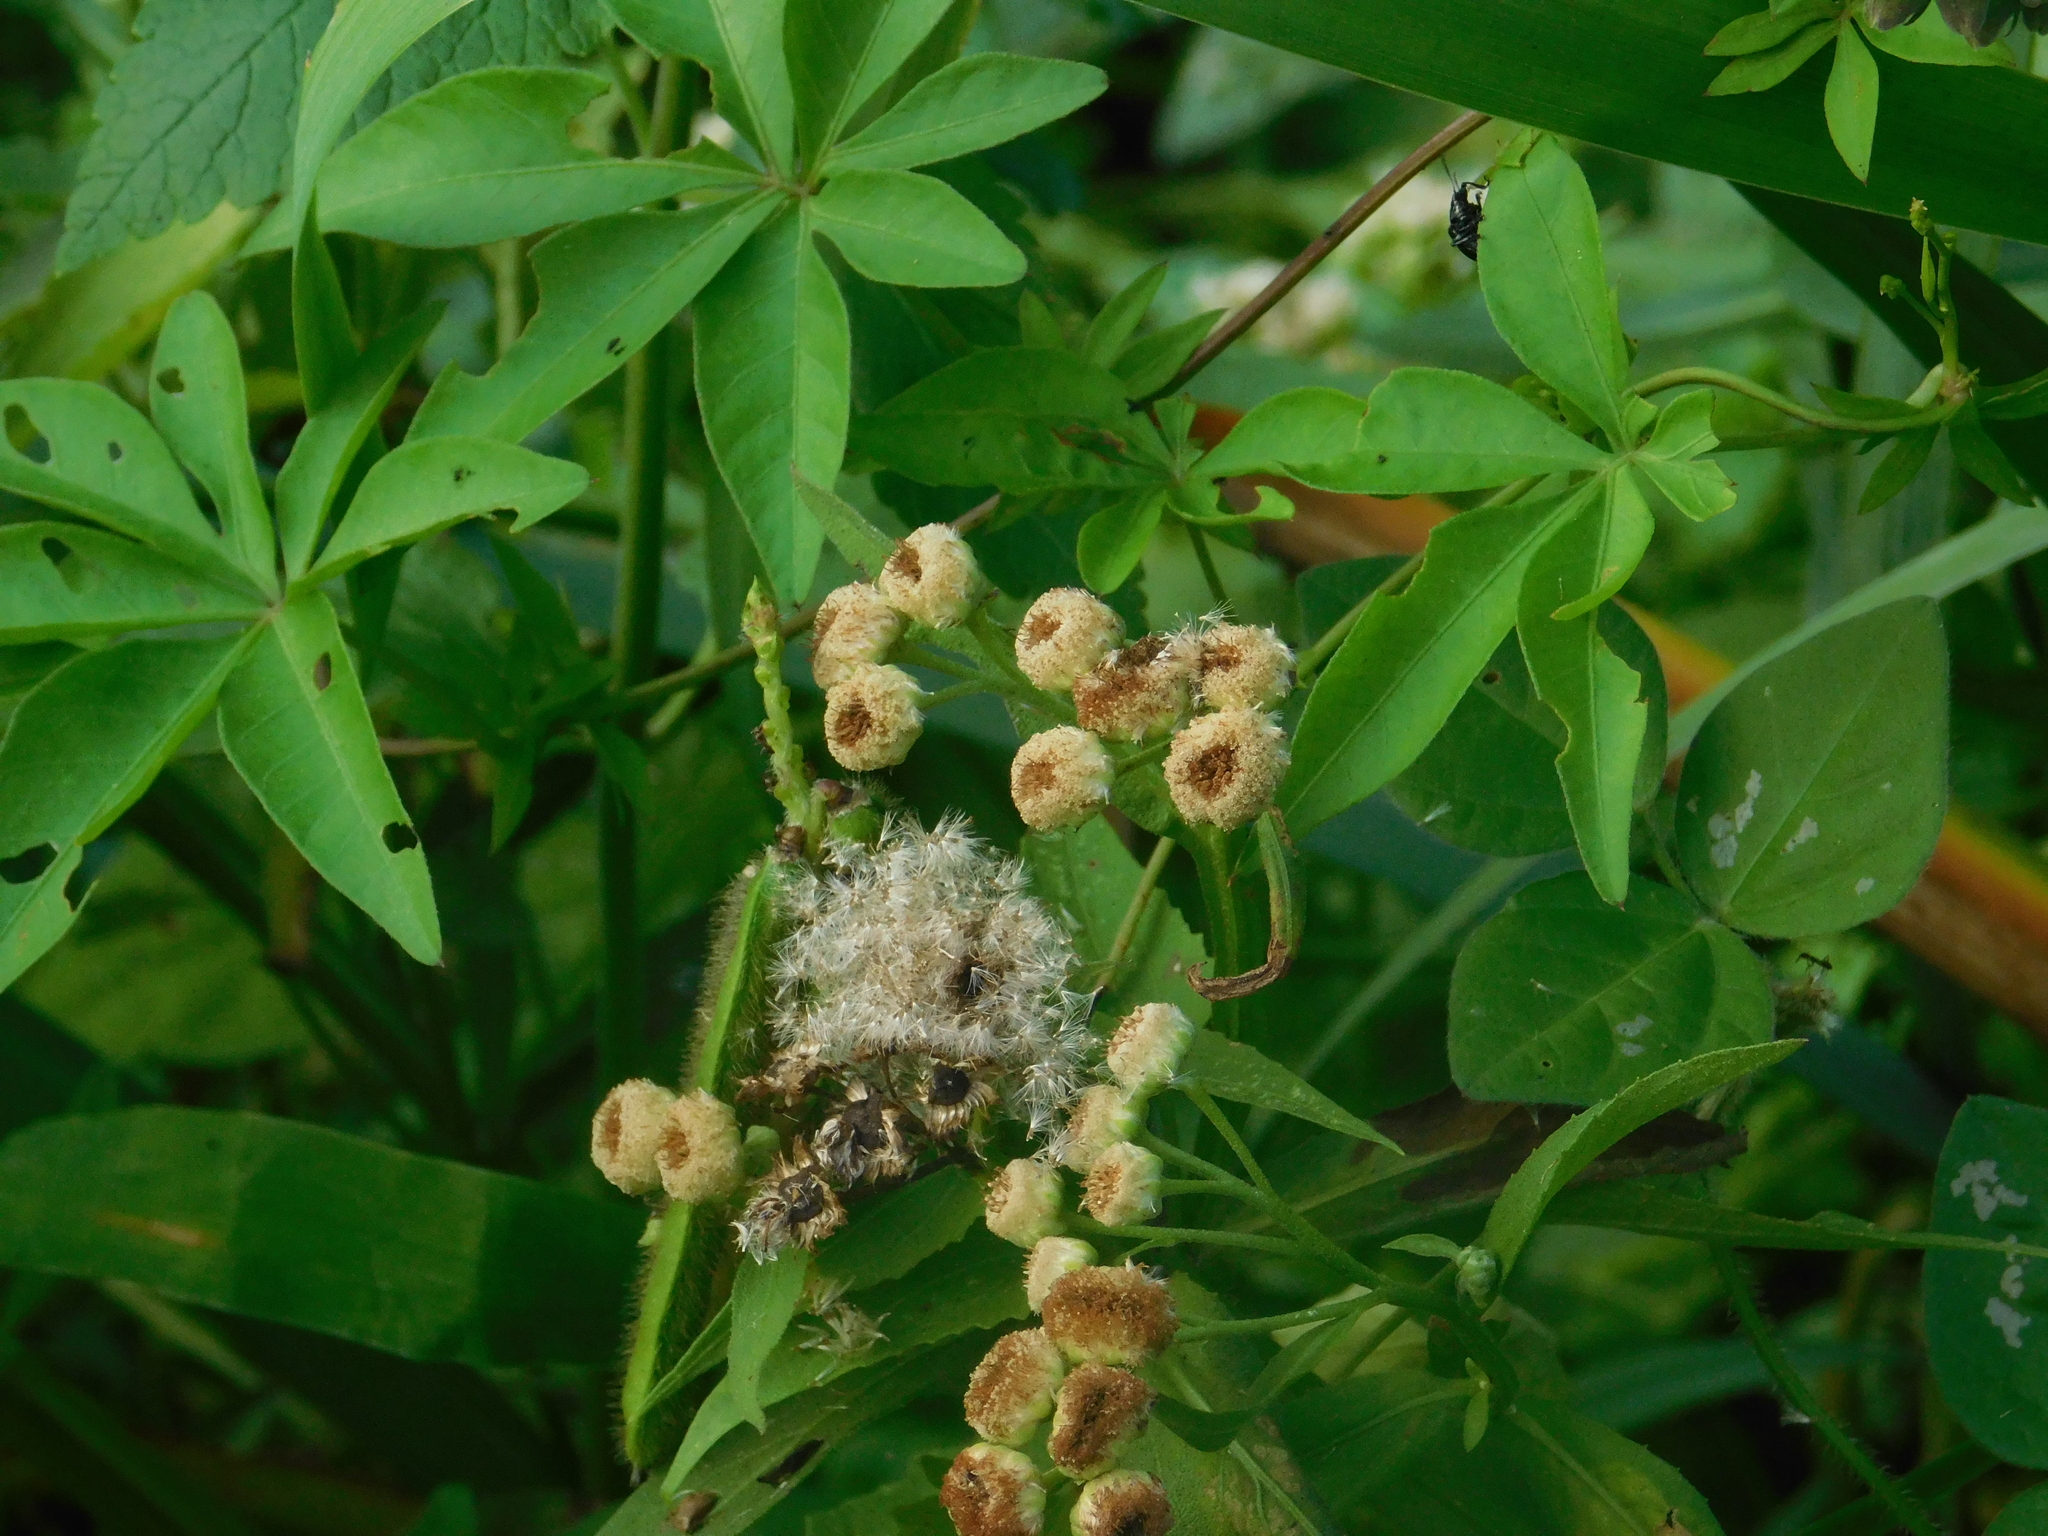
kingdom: Plantae
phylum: Tracheophyta
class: Magnoliopsida
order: Asterales
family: Asteraceae
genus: Pluchea
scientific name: Pluchea sagittalis
